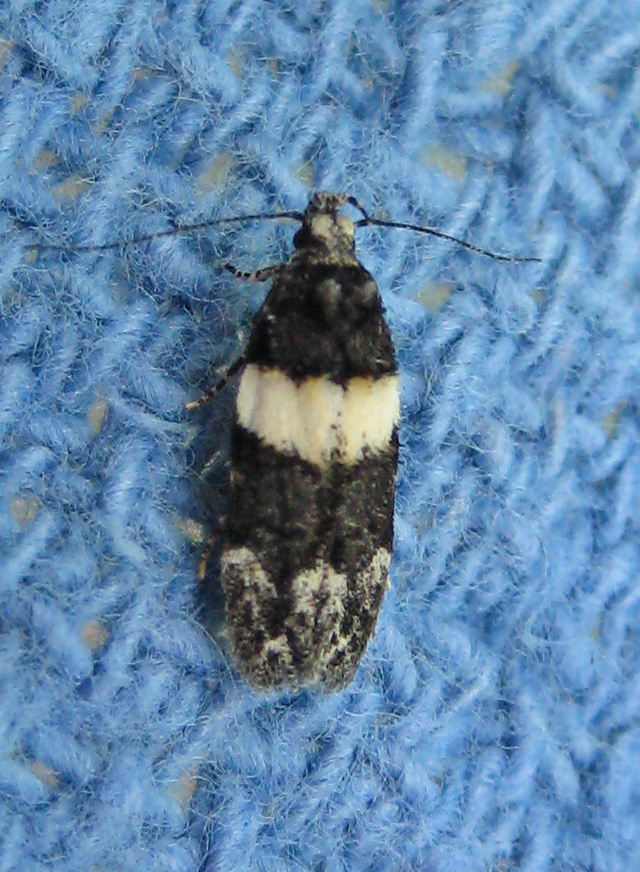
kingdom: Animalia
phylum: Arthropoda
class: Insecta
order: Lepidoptera
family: Gelechiidae
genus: Pubitelphusa
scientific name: Pubitelphusa latifasciella
